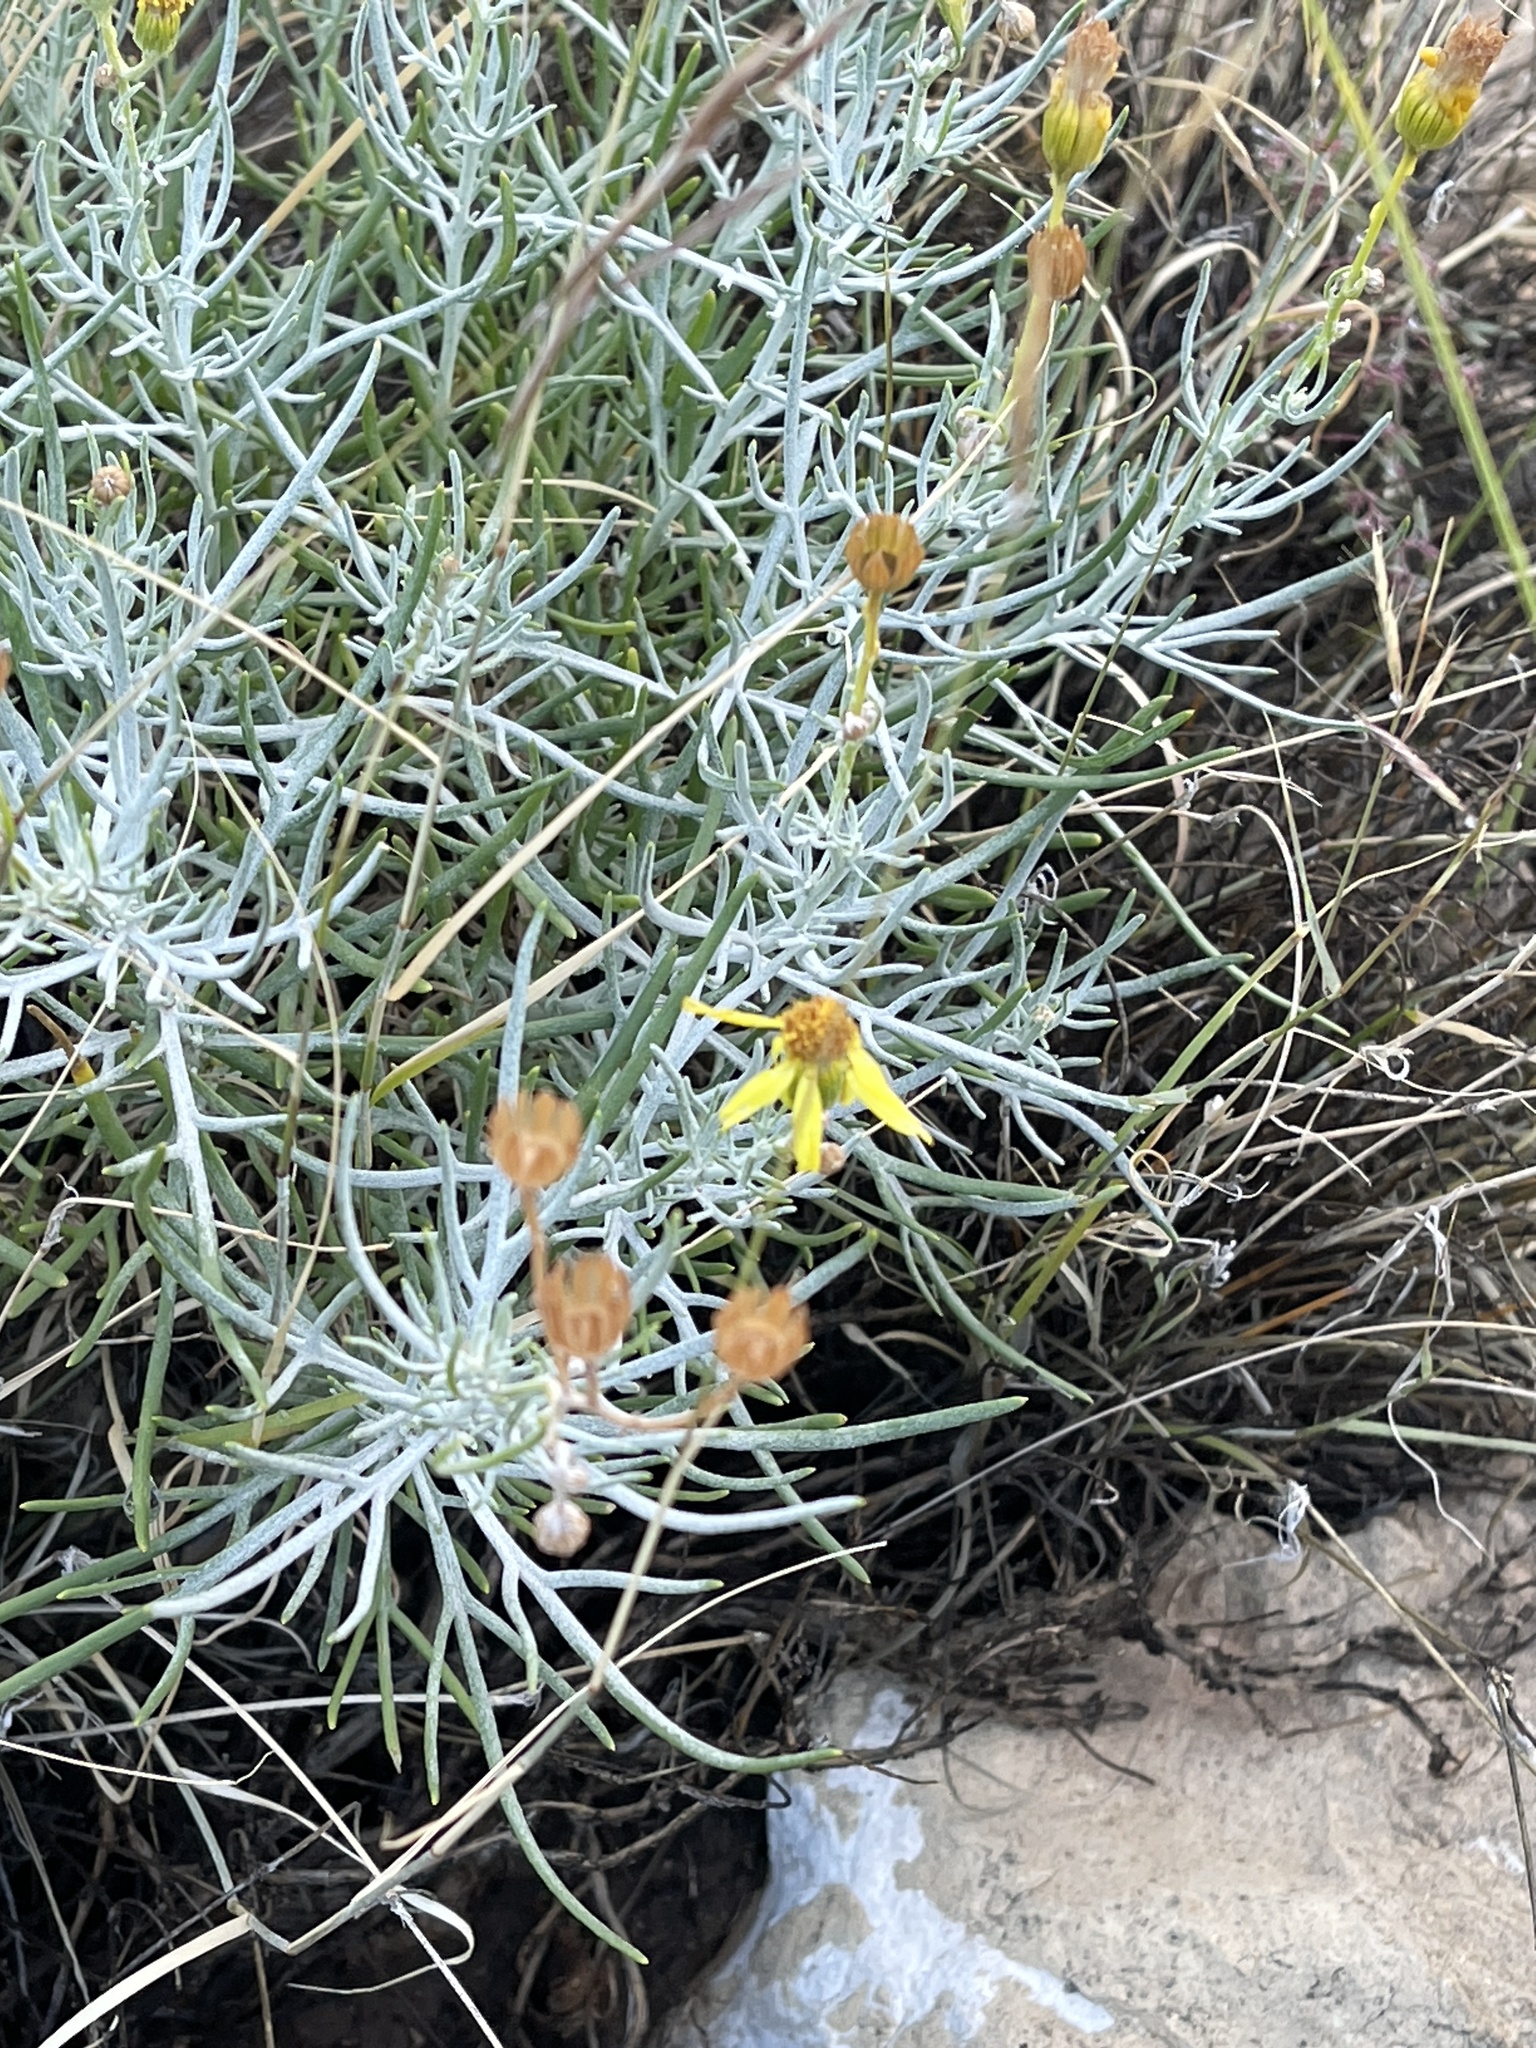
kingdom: Plantae
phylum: Tracheophyta
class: Magnoliopsida
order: Asterales
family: Asteraceae
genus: Senecio
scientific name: Senecio flaccidus
